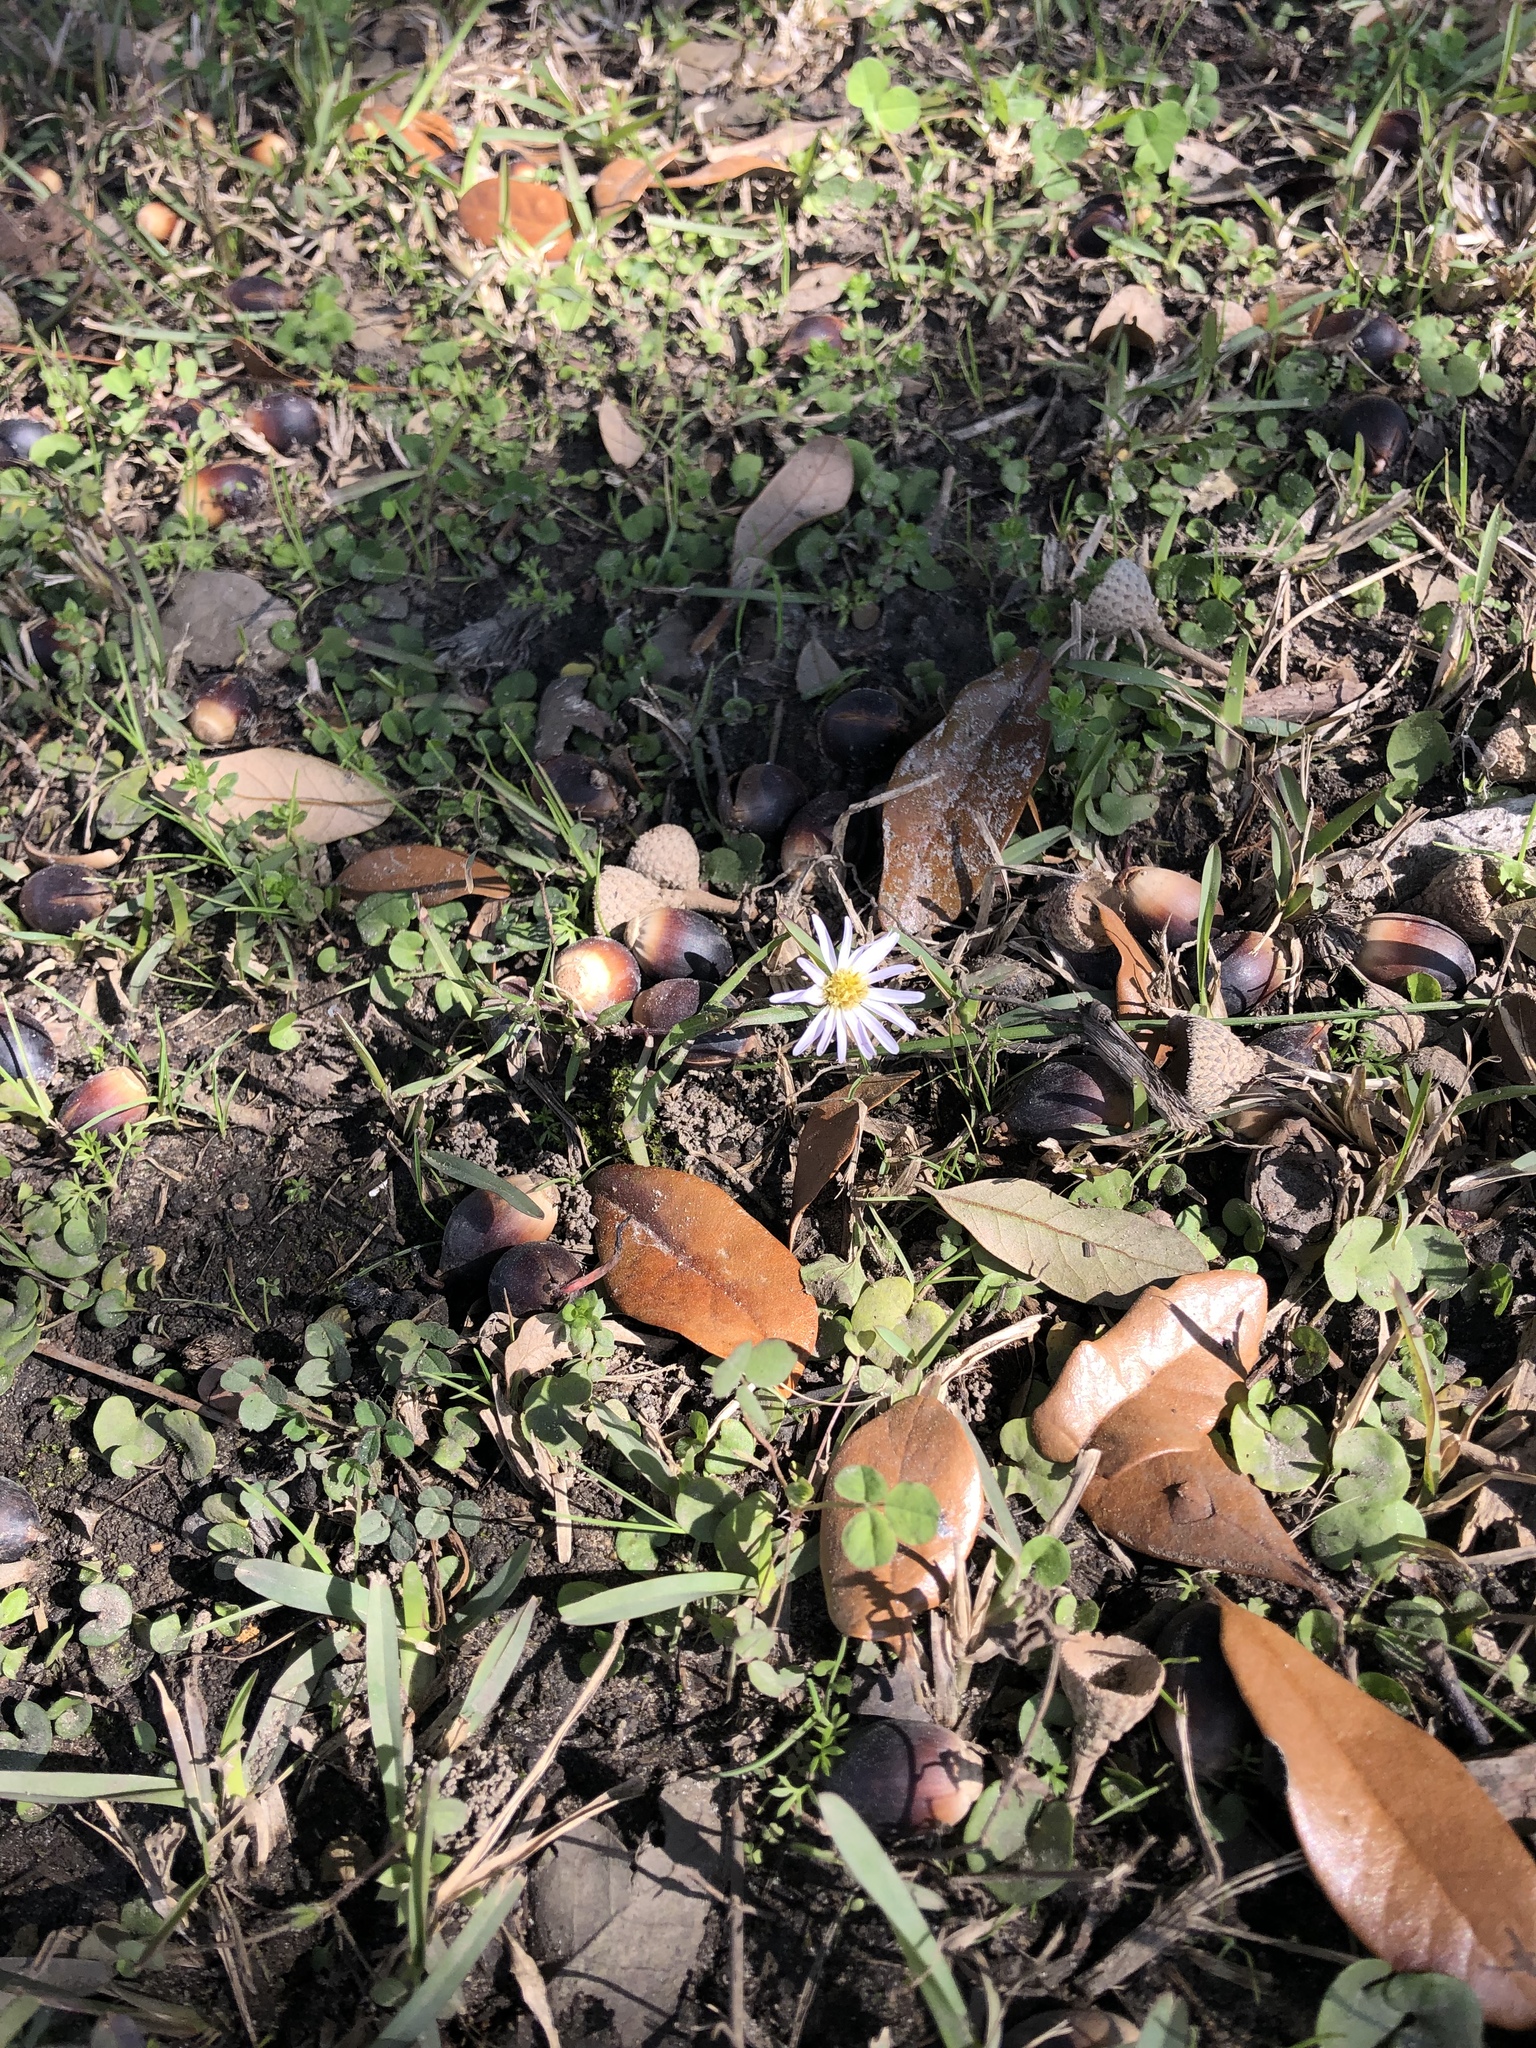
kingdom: Plantae
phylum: Tracheophyta
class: Magnoliopsida
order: Asterales
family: Asteraceae
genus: Symphyotrichum
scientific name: Symphyotrichum divaricatum
